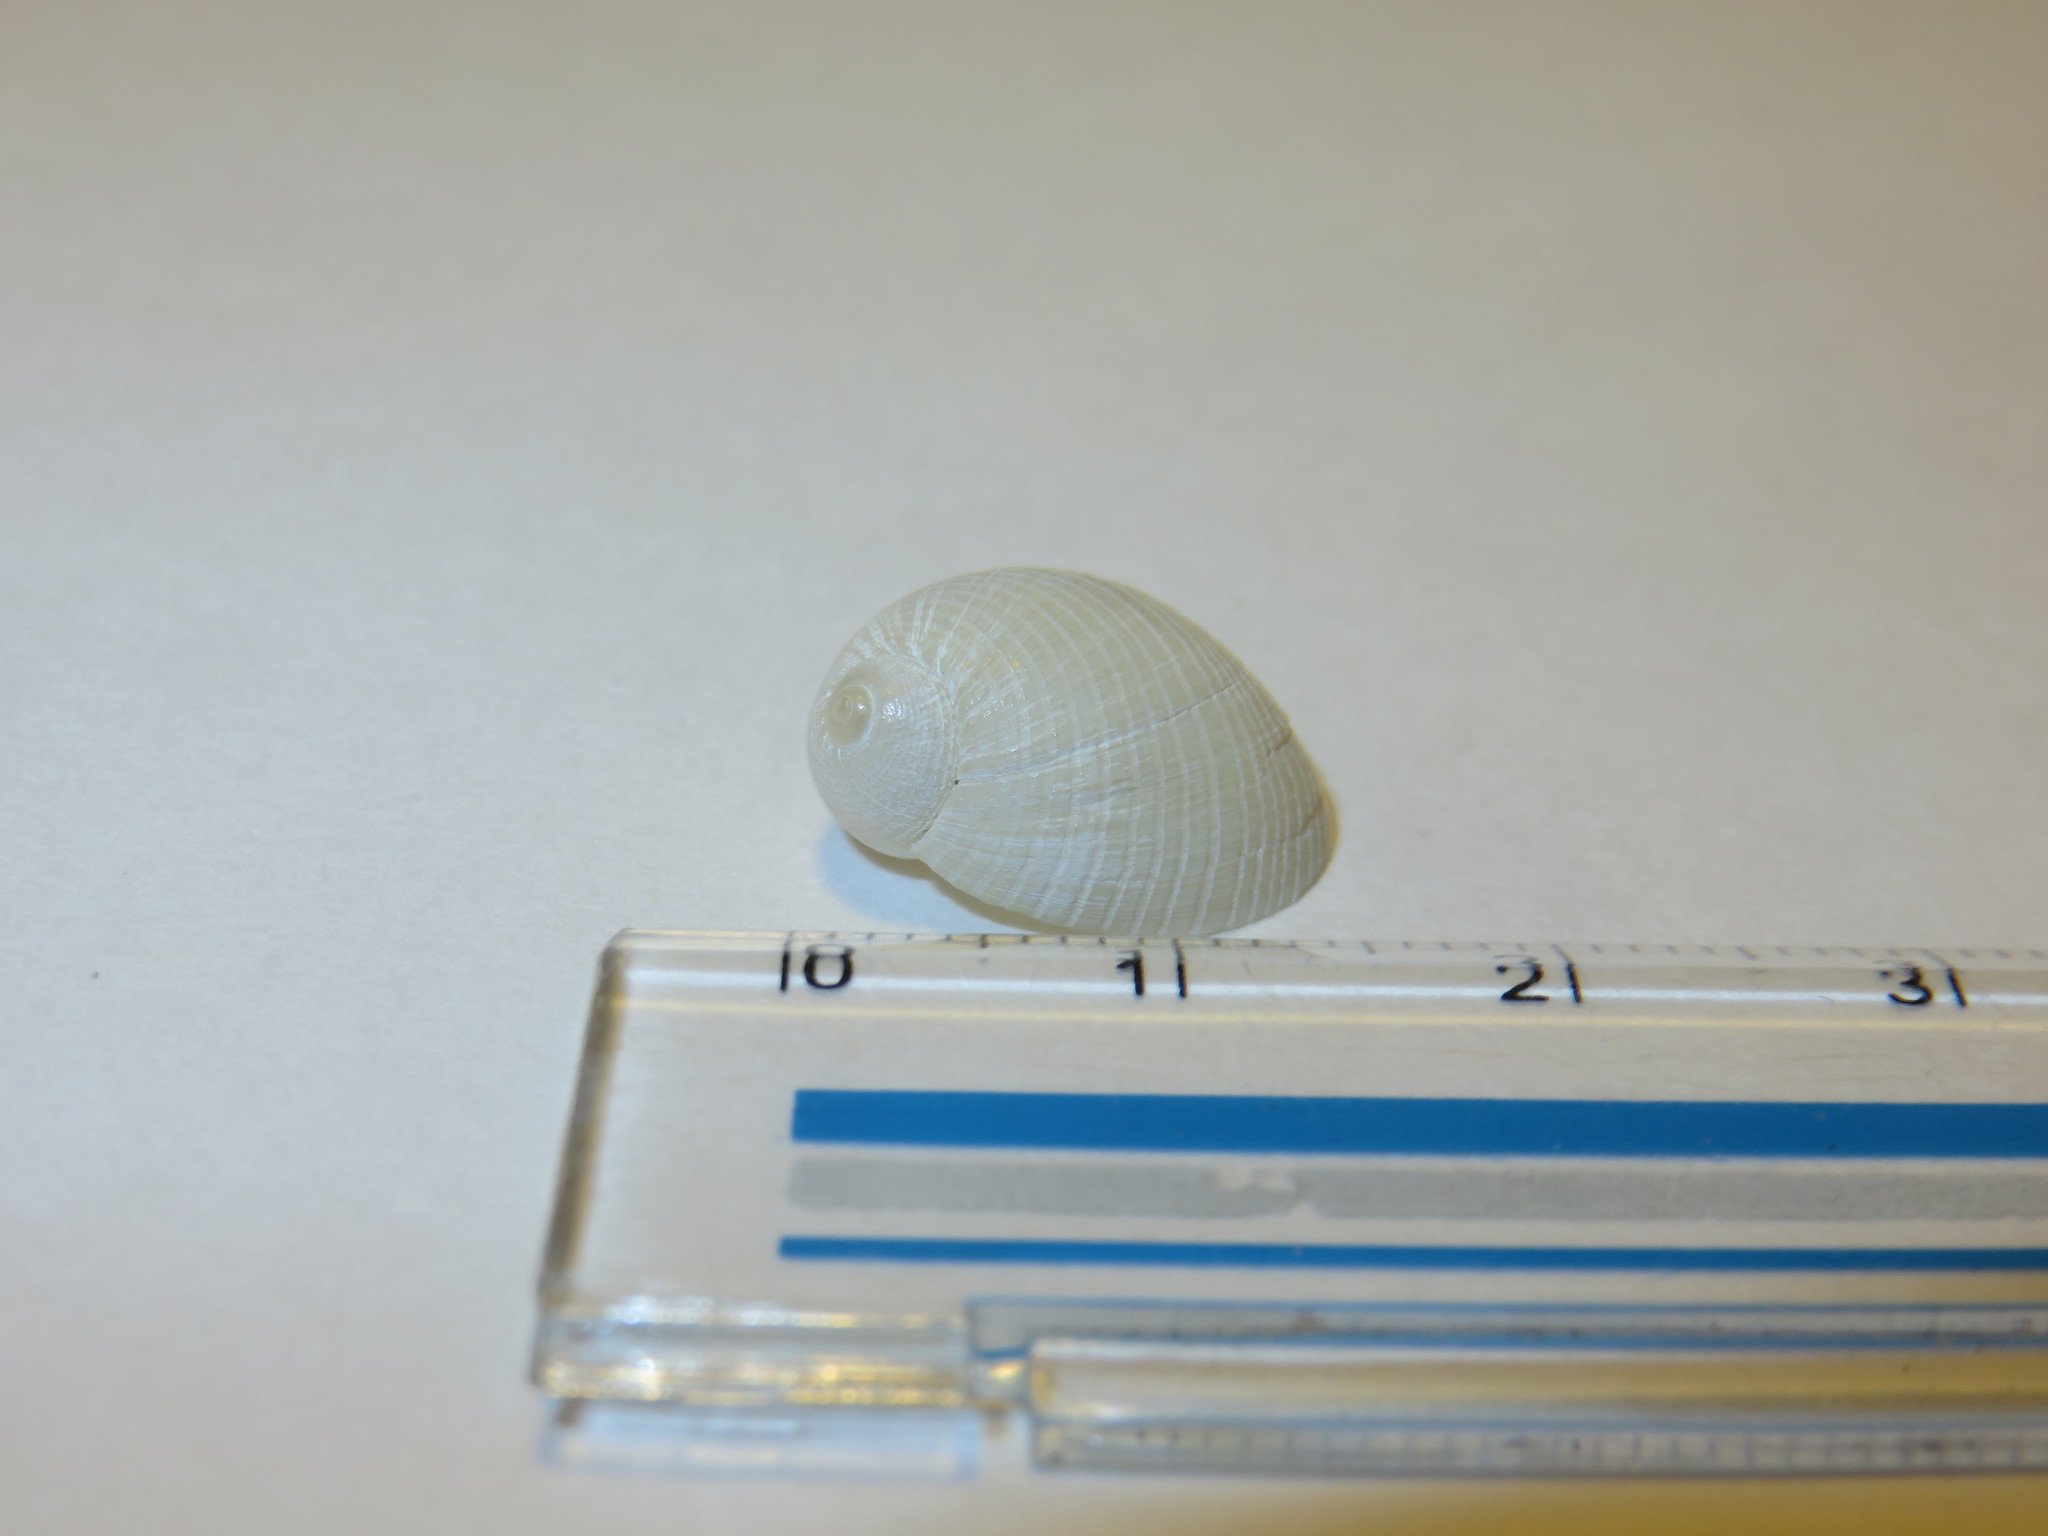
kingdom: Animalia
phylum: Mollusca
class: Gastropoda
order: Littorinimorpha
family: Naticidae
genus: Eunaticina
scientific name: Eunaticina papilla
